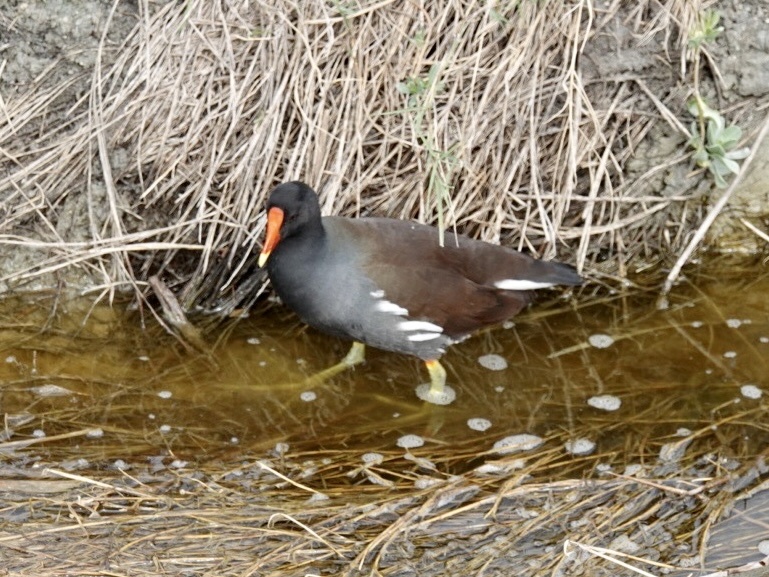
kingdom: Animalia
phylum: Chordata
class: Aves
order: Gruiformes
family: Rallidae
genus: Gallinula
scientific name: Gallinula chloropus
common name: Common moorhen
